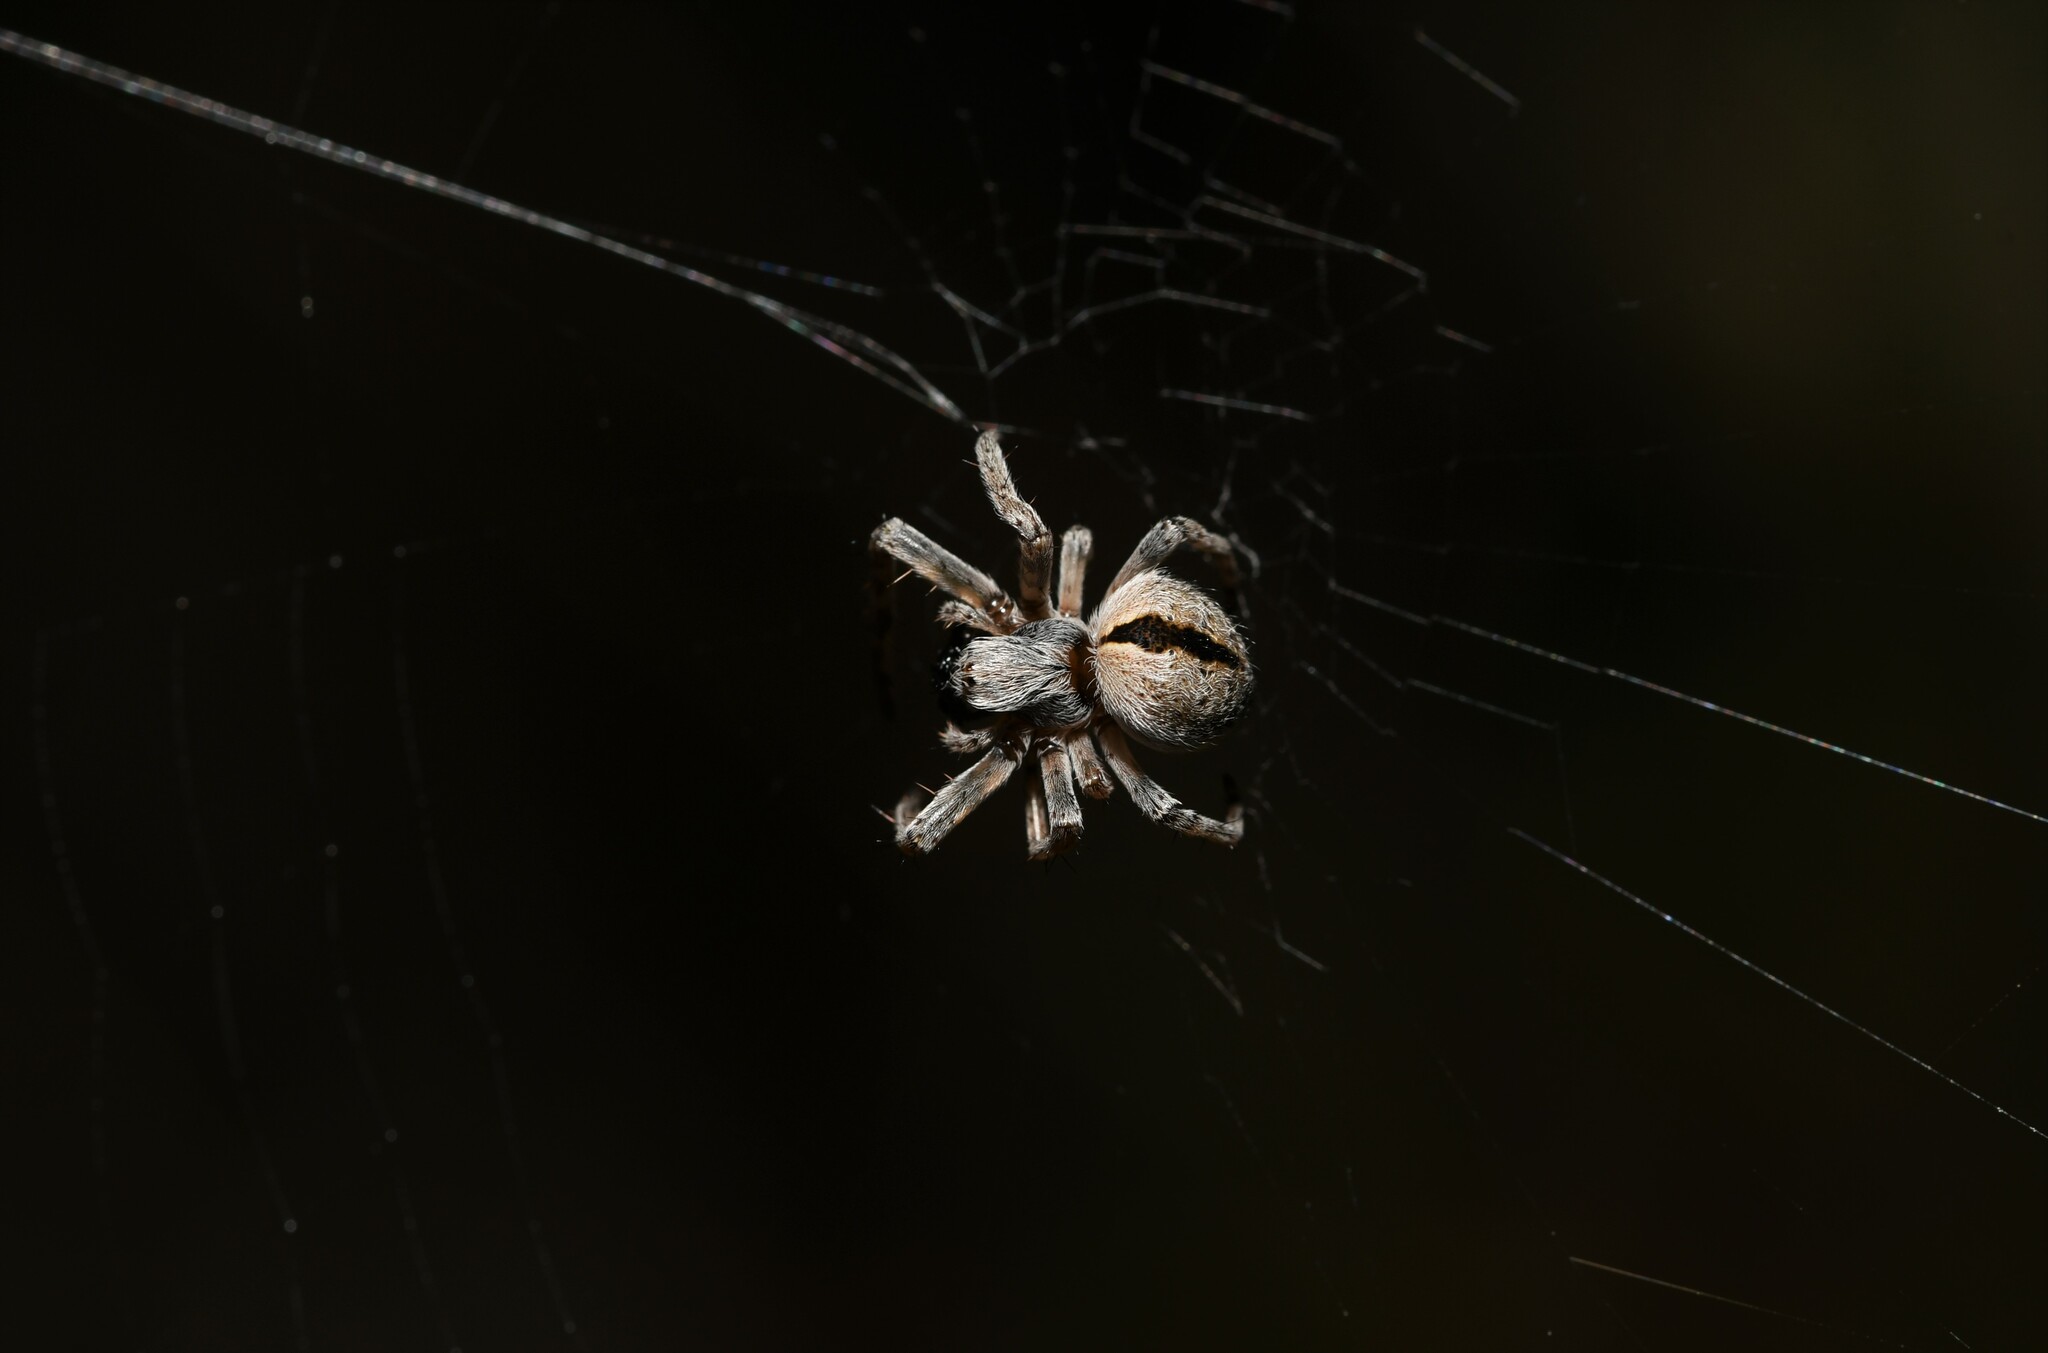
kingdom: Animalia
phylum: Arthropoda
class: Arachnida
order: Araneae
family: Araneidae
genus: Agalenatea
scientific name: Agalenatea redii
